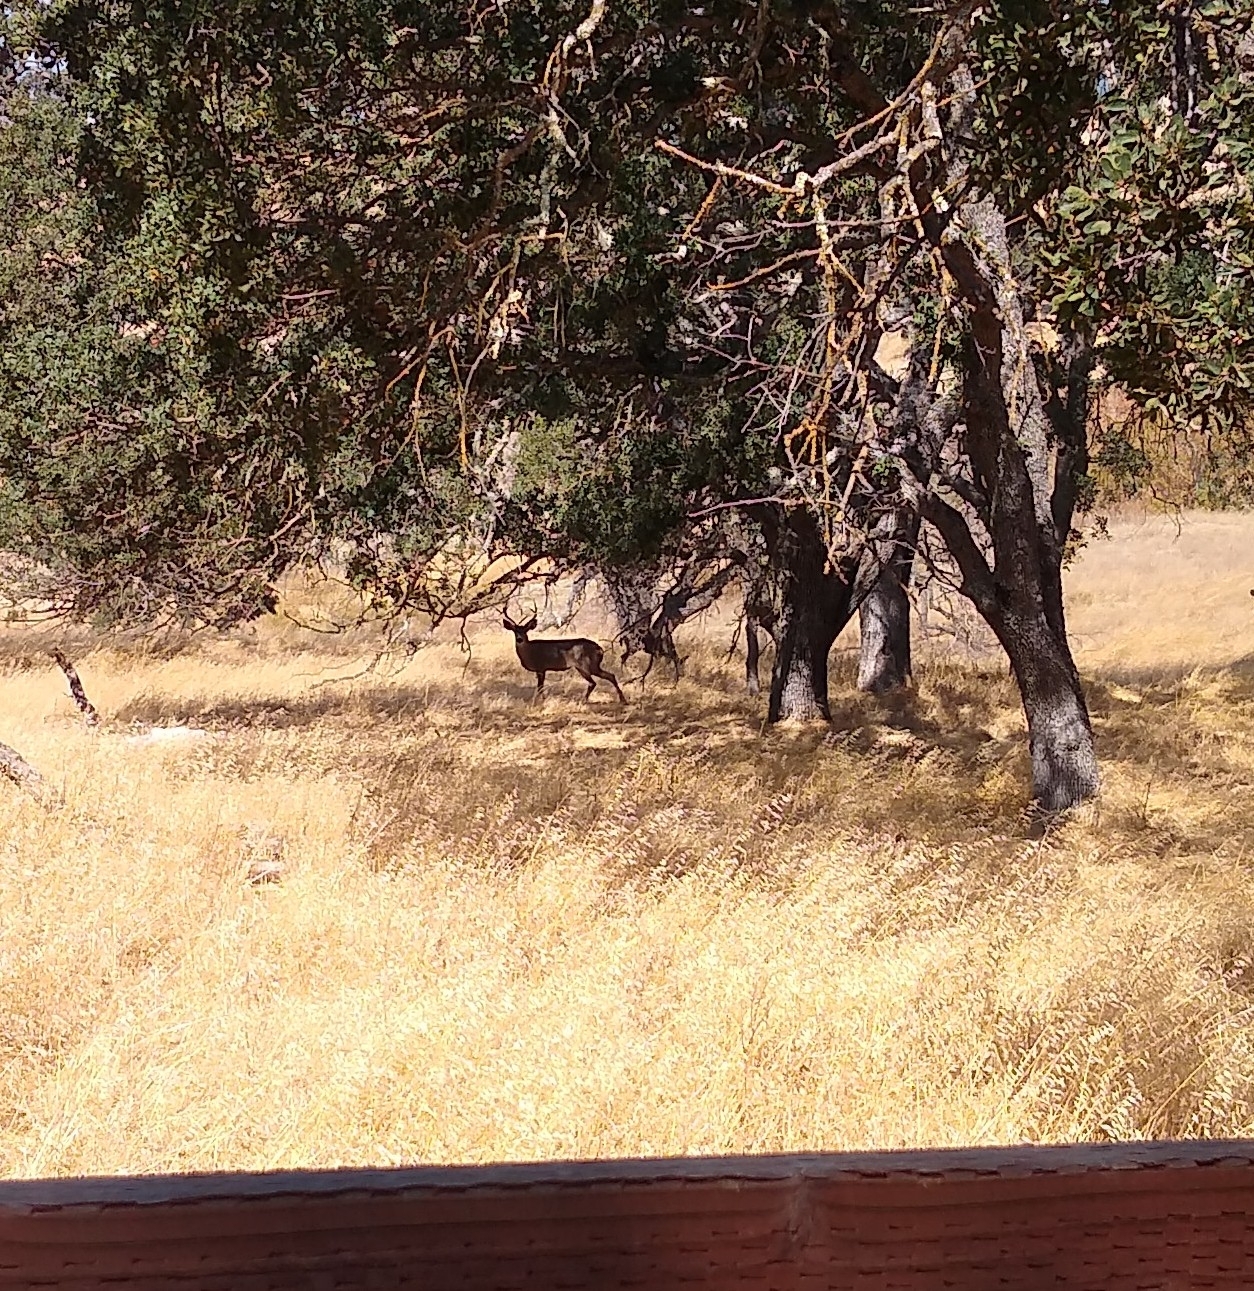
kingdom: Animalia
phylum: Chordata
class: Mammalia
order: Artiodactyla
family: Cervidae
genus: Odocoileus
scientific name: Odocoileus hemionus
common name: Mule deer
